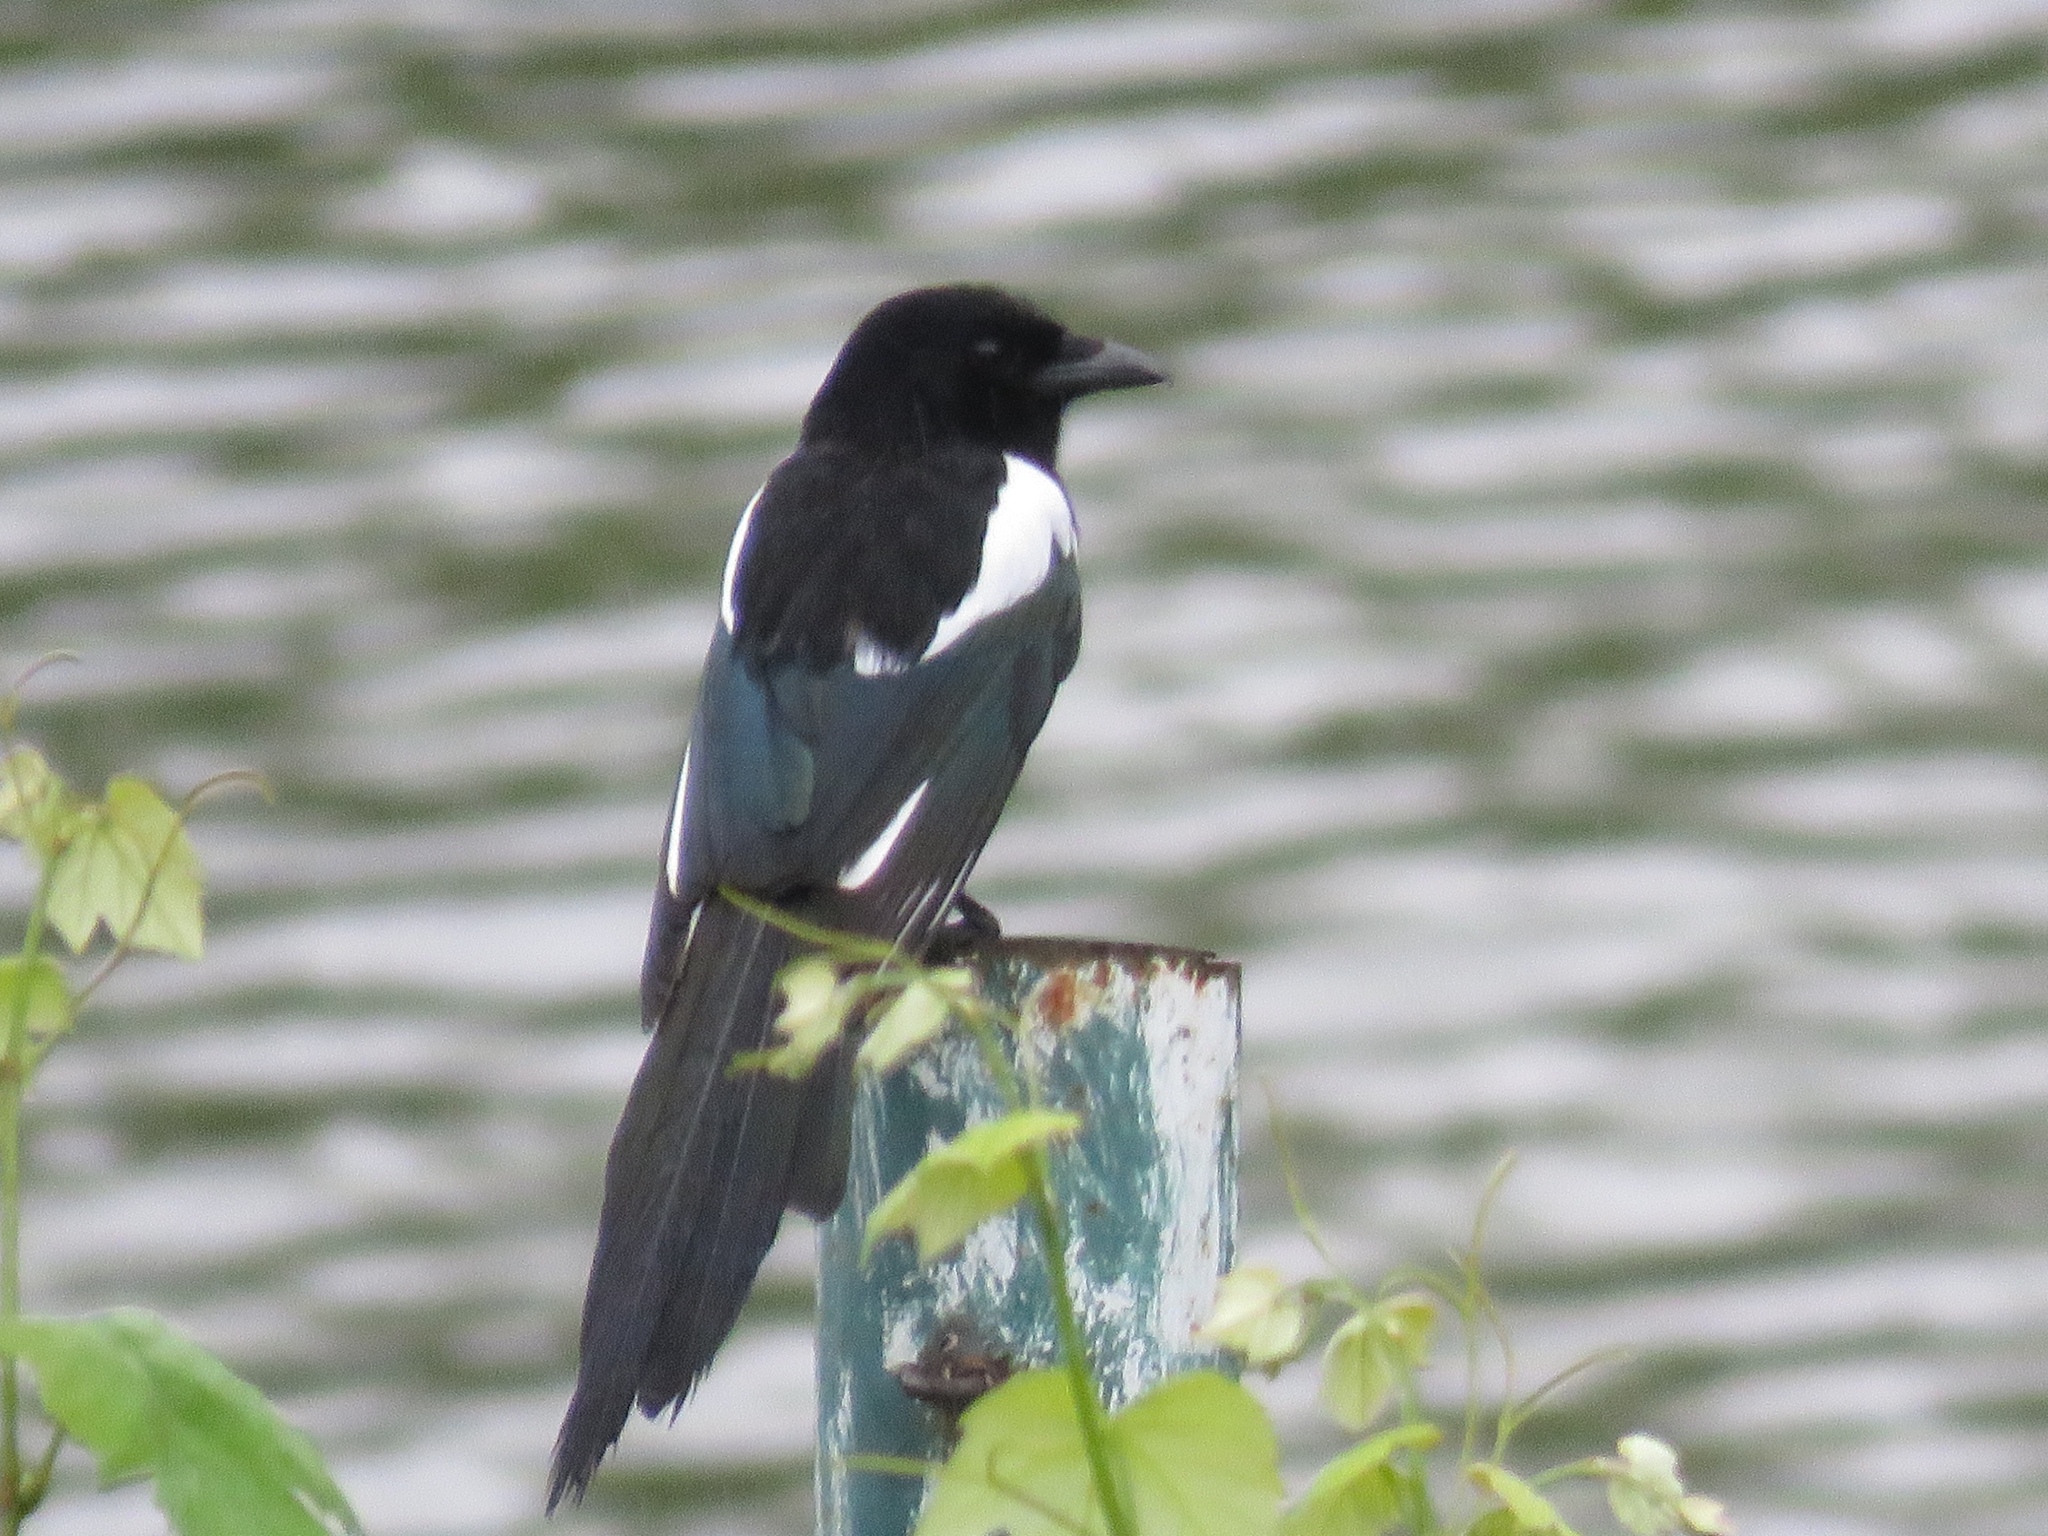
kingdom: Animalia
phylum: Chordata
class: Aves
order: Passeriformes
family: Corvidae
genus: Pica
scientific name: Pica pica
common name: Eurasian magpie
